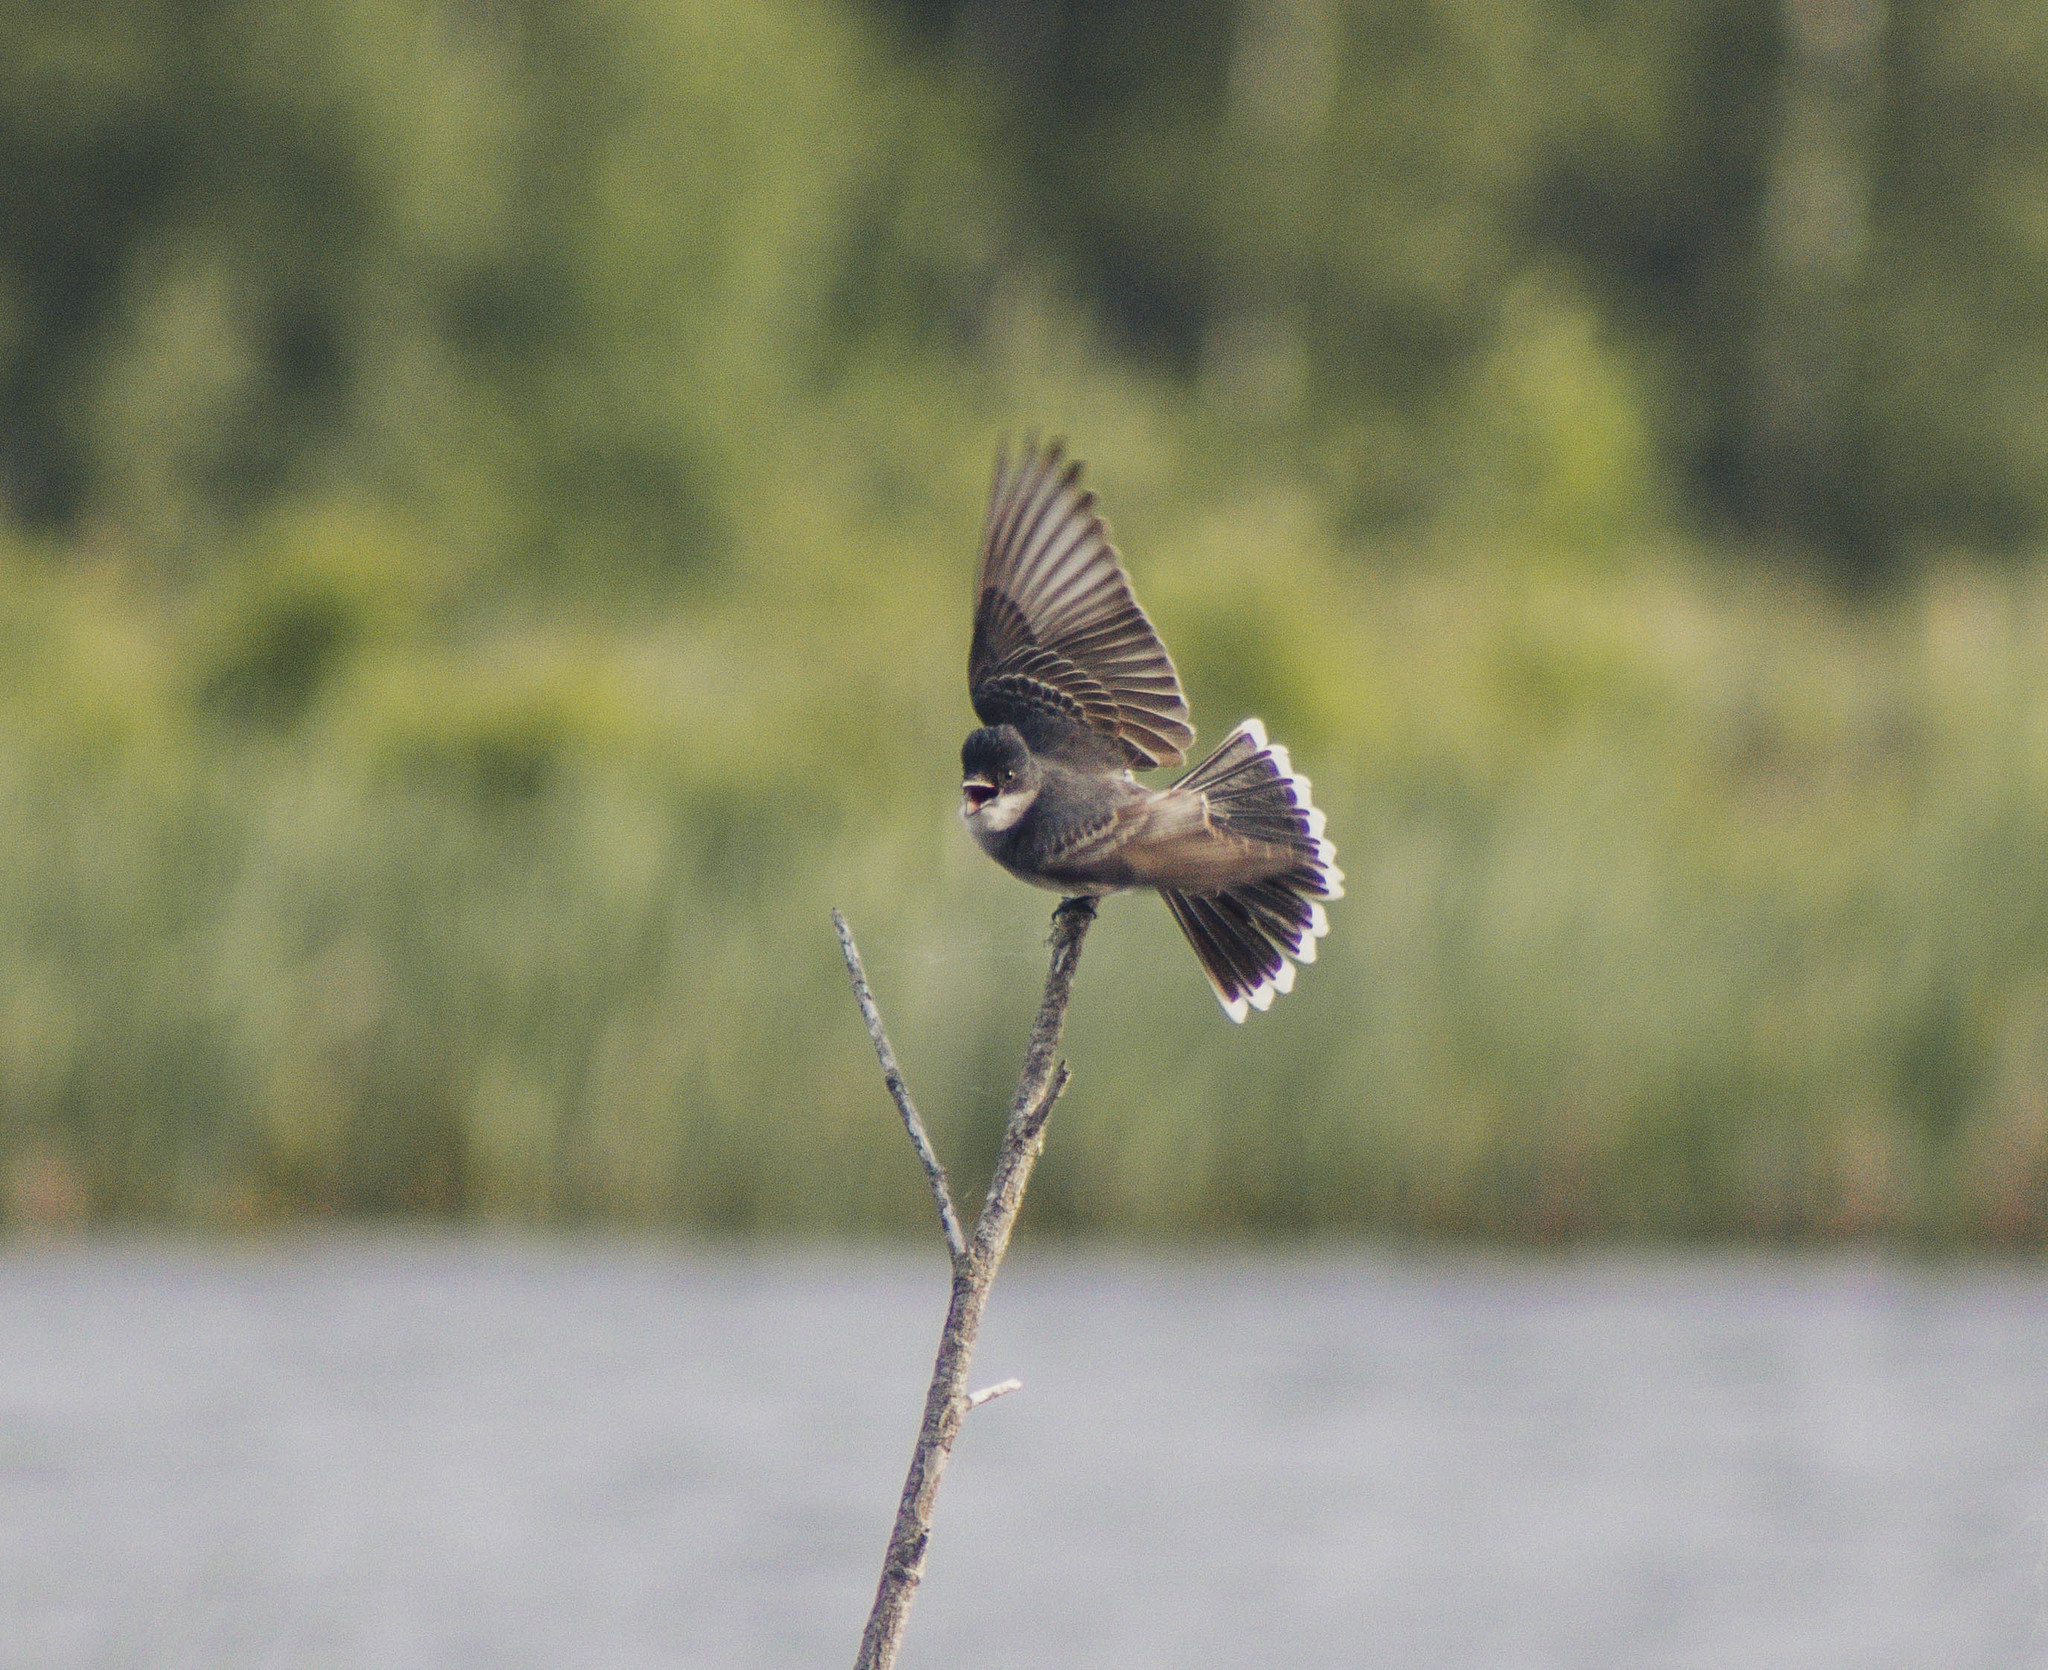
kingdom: Animalia
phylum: Chordata
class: Aves
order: Passeriformes
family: Tyrannidae
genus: Tyrannus
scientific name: Tyrannus tyrannus
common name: Eastern kingbird
